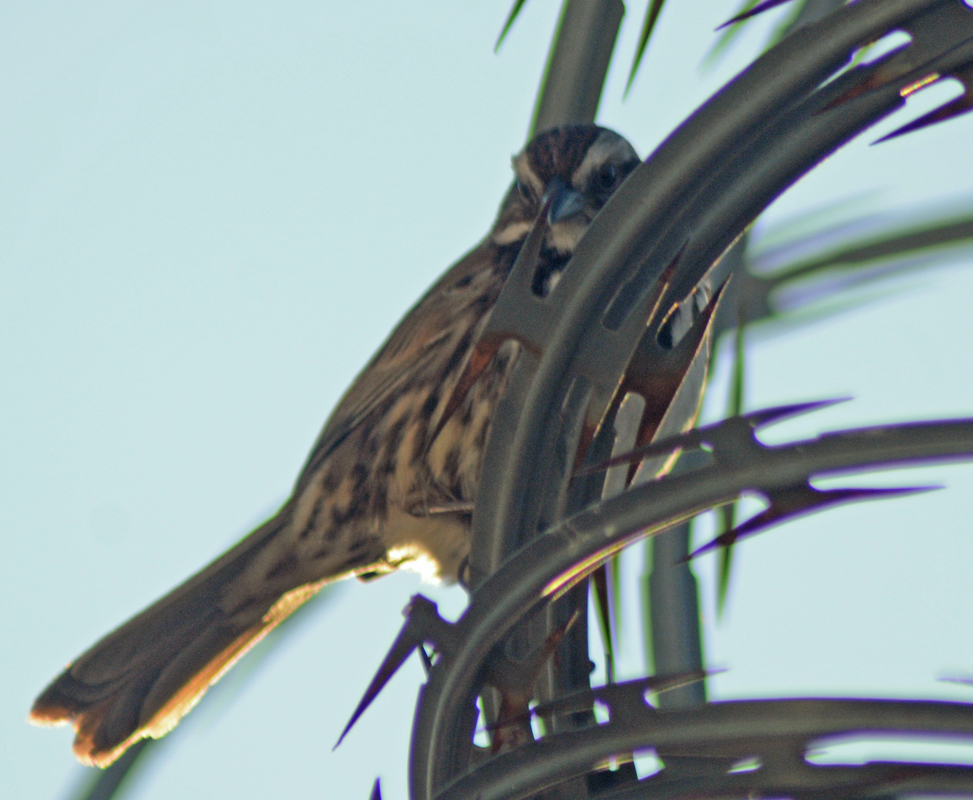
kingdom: Animalia
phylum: Chordata
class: Aves
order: Passeriformes
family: Passerellidae
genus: Melospiza
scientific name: Melospiza melodia
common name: Song sparrow
